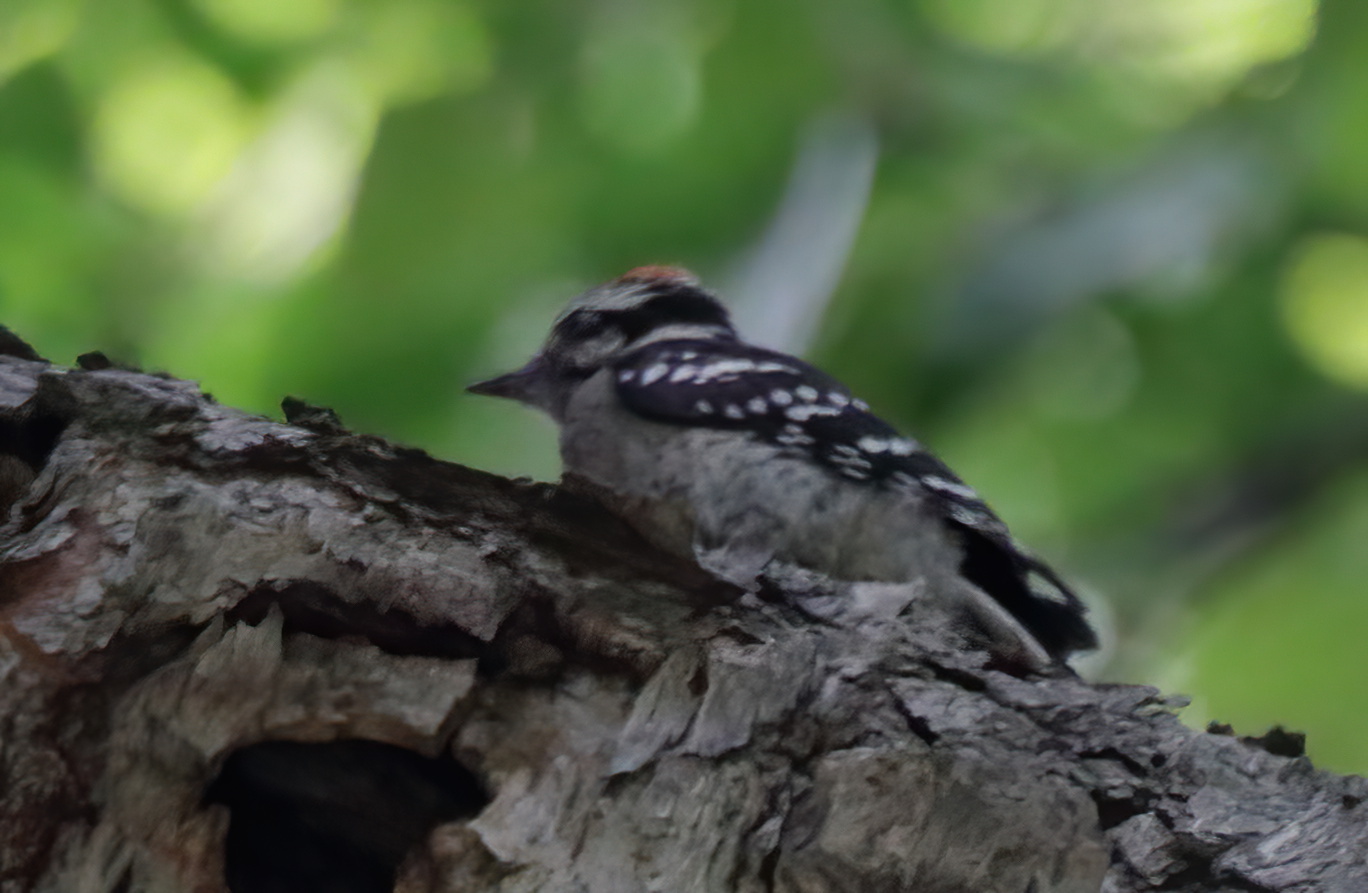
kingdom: Animalia
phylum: Chordata
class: Aves
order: Piciformes
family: Picidae
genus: Dryobates
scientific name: Dryobates pubescens
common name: Downy woodpecker
